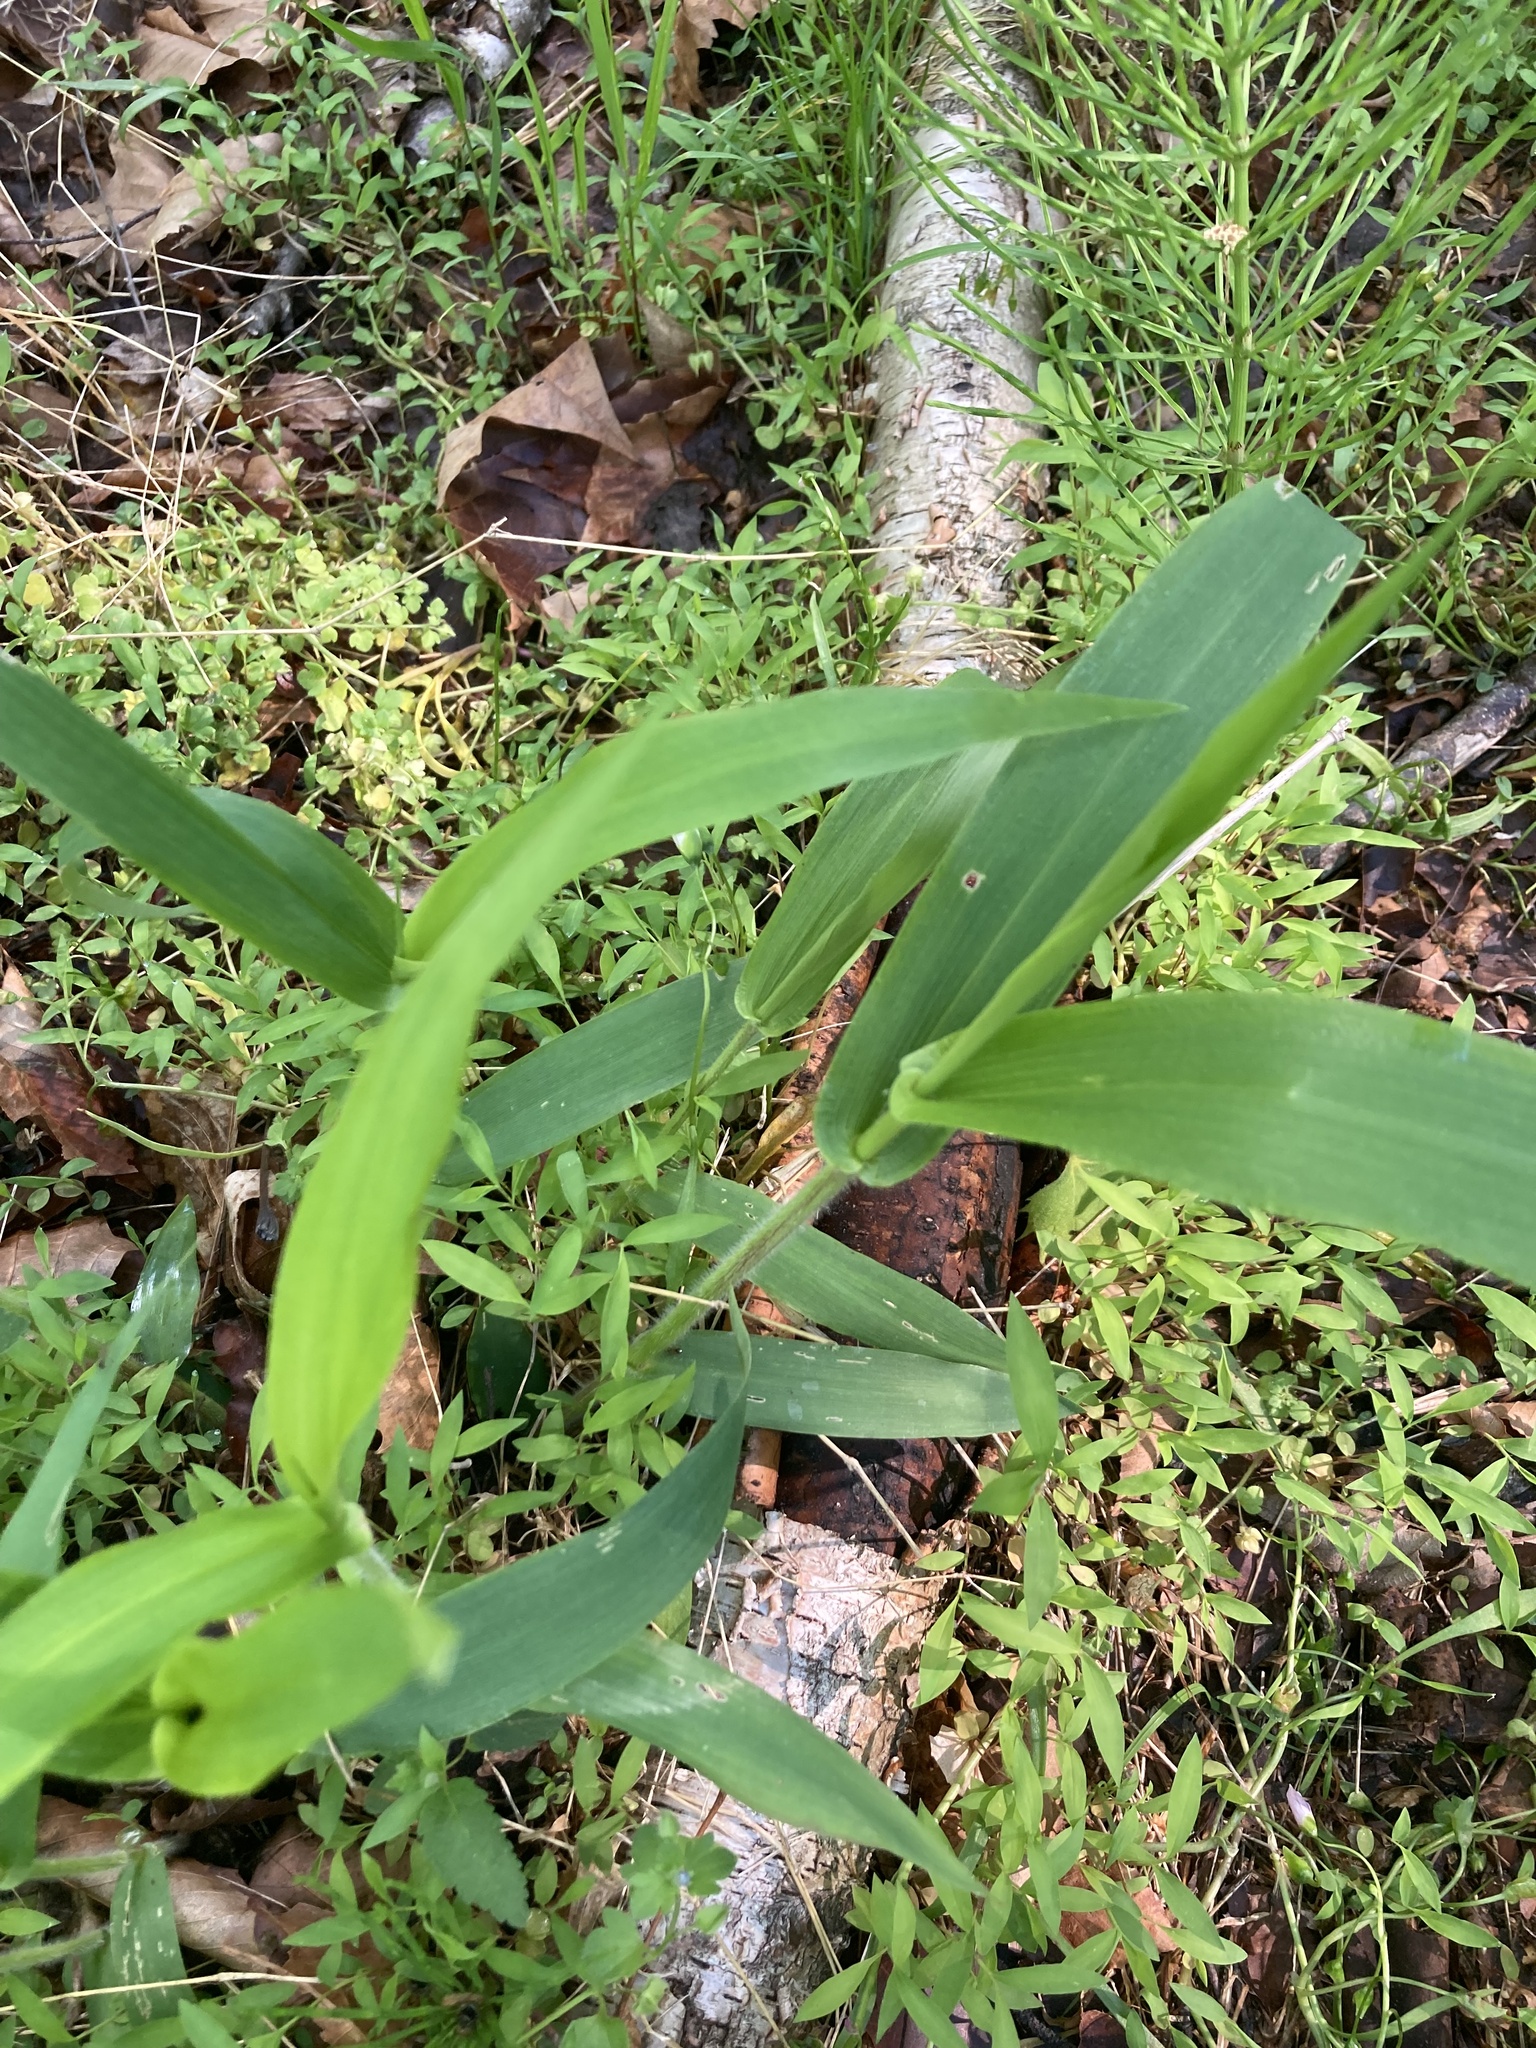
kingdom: Plantae
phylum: Tracheophyta
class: Liliopsida
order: Poales
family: Poaceae
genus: Dichanthelium
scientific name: Dichanthelium clandestinum
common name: Deer-tongue grass
